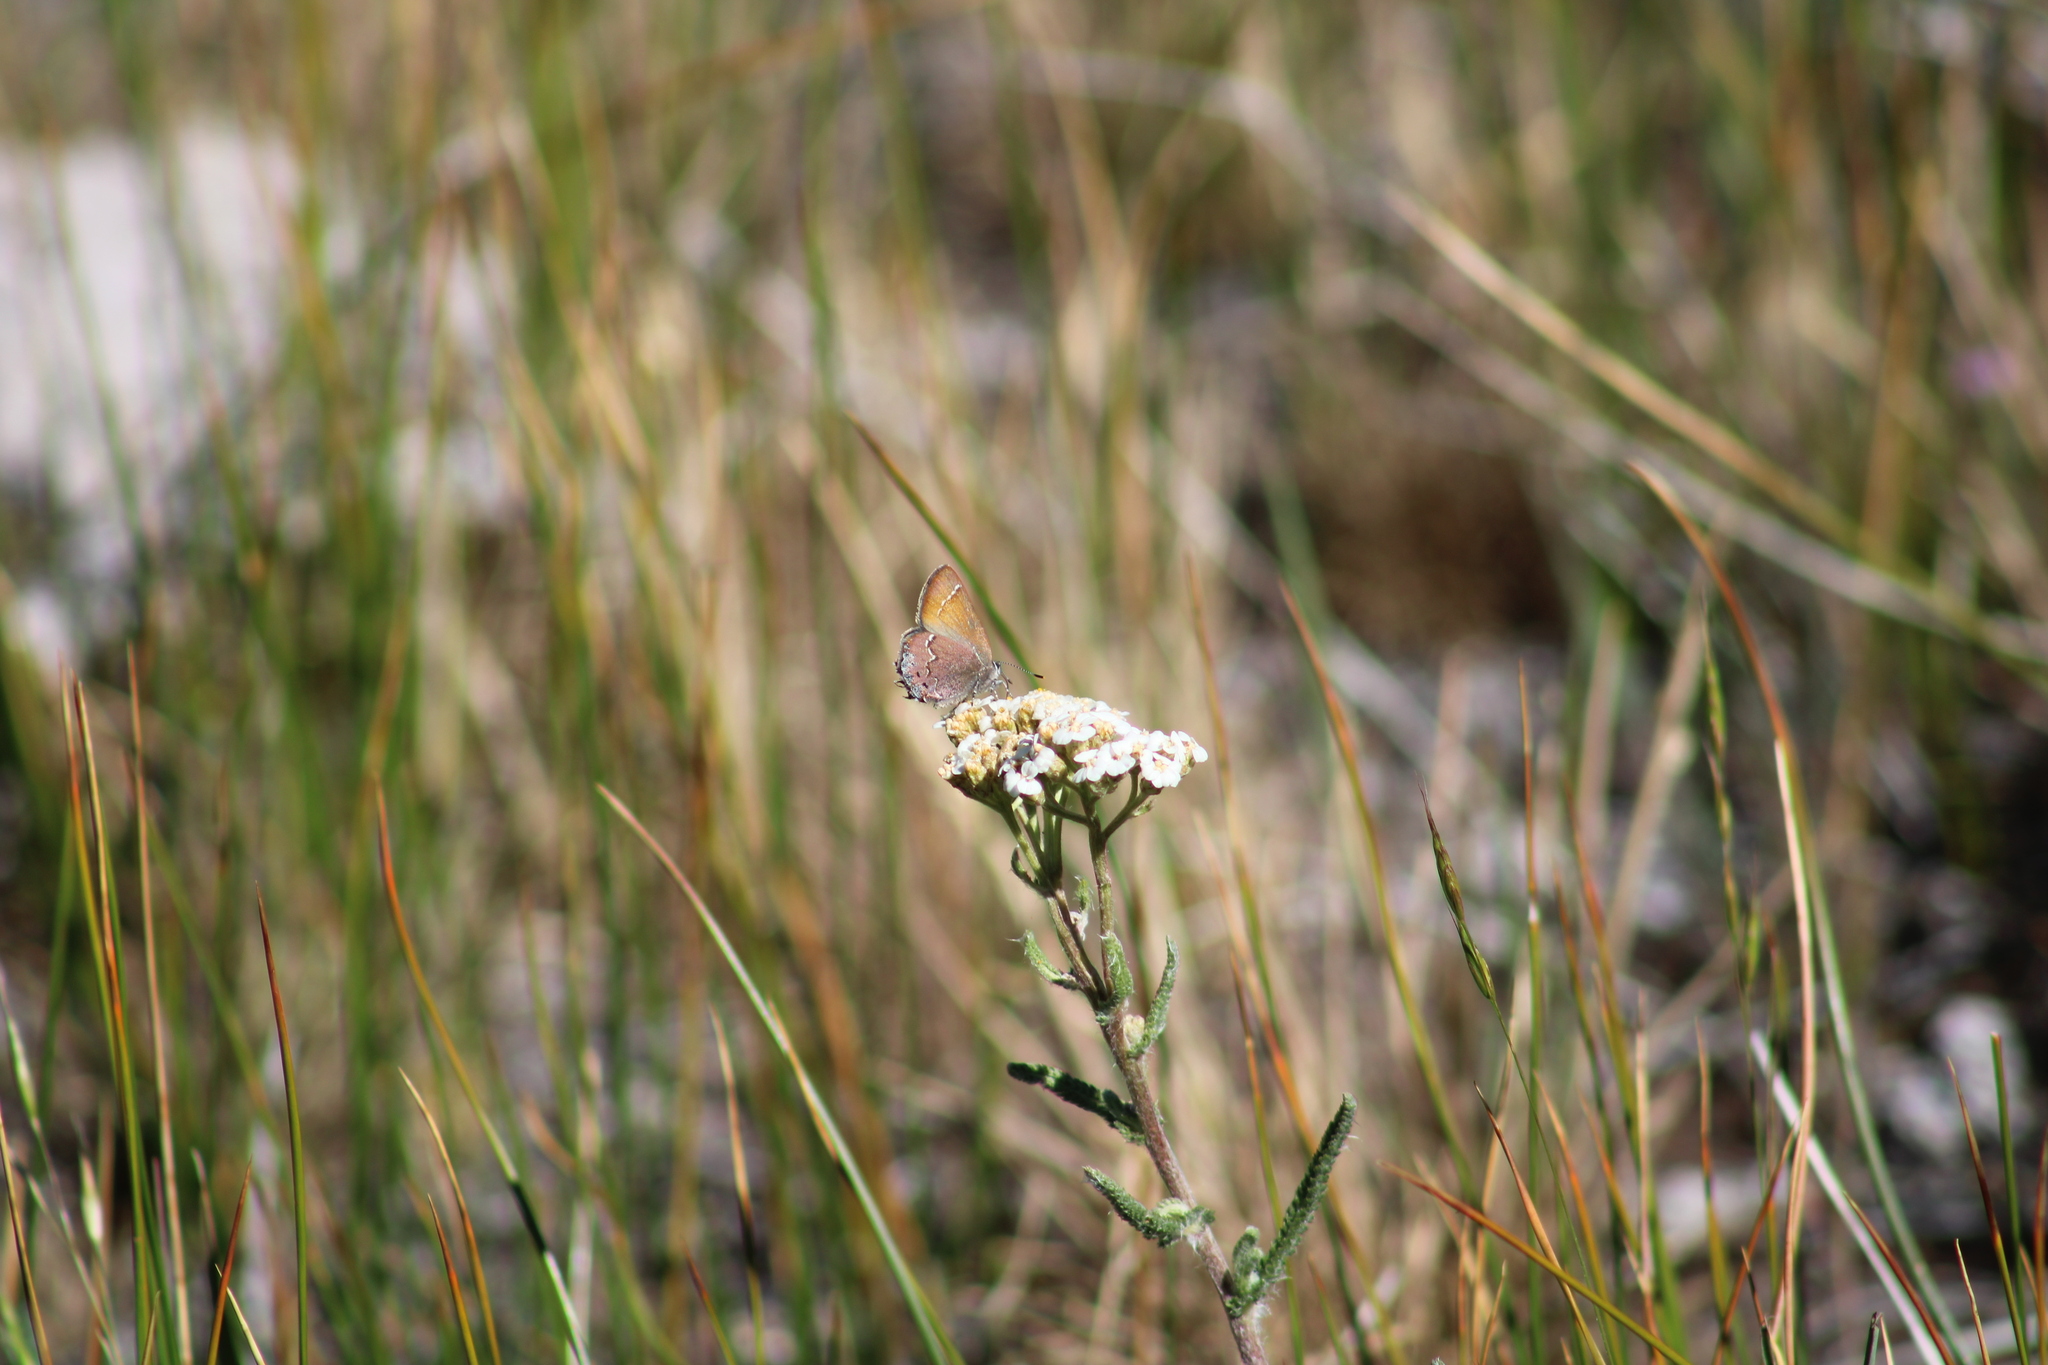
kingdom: Animalia
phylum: Arthropoda
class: Insecta
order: Lepidoptera
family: Lycaenidae
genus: Mitoura
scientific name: Mitoura gryneus
